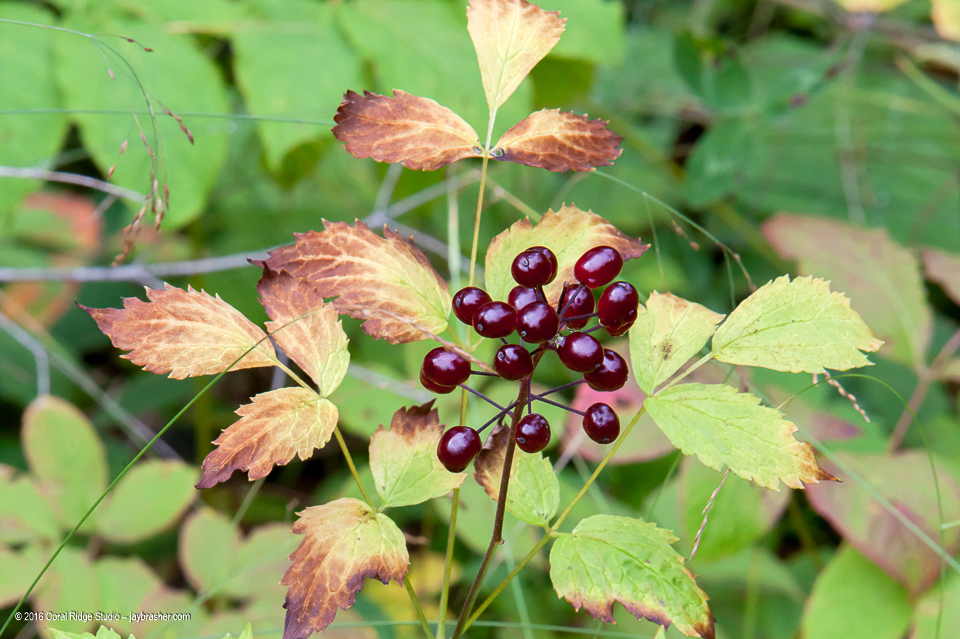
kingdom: Plantae
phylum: Tracheophyta
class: Magnoliopsida
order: Ranunculales
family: Ranunculaceae
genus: Actaea
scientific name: Actaea rubra
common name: Red baneberry
